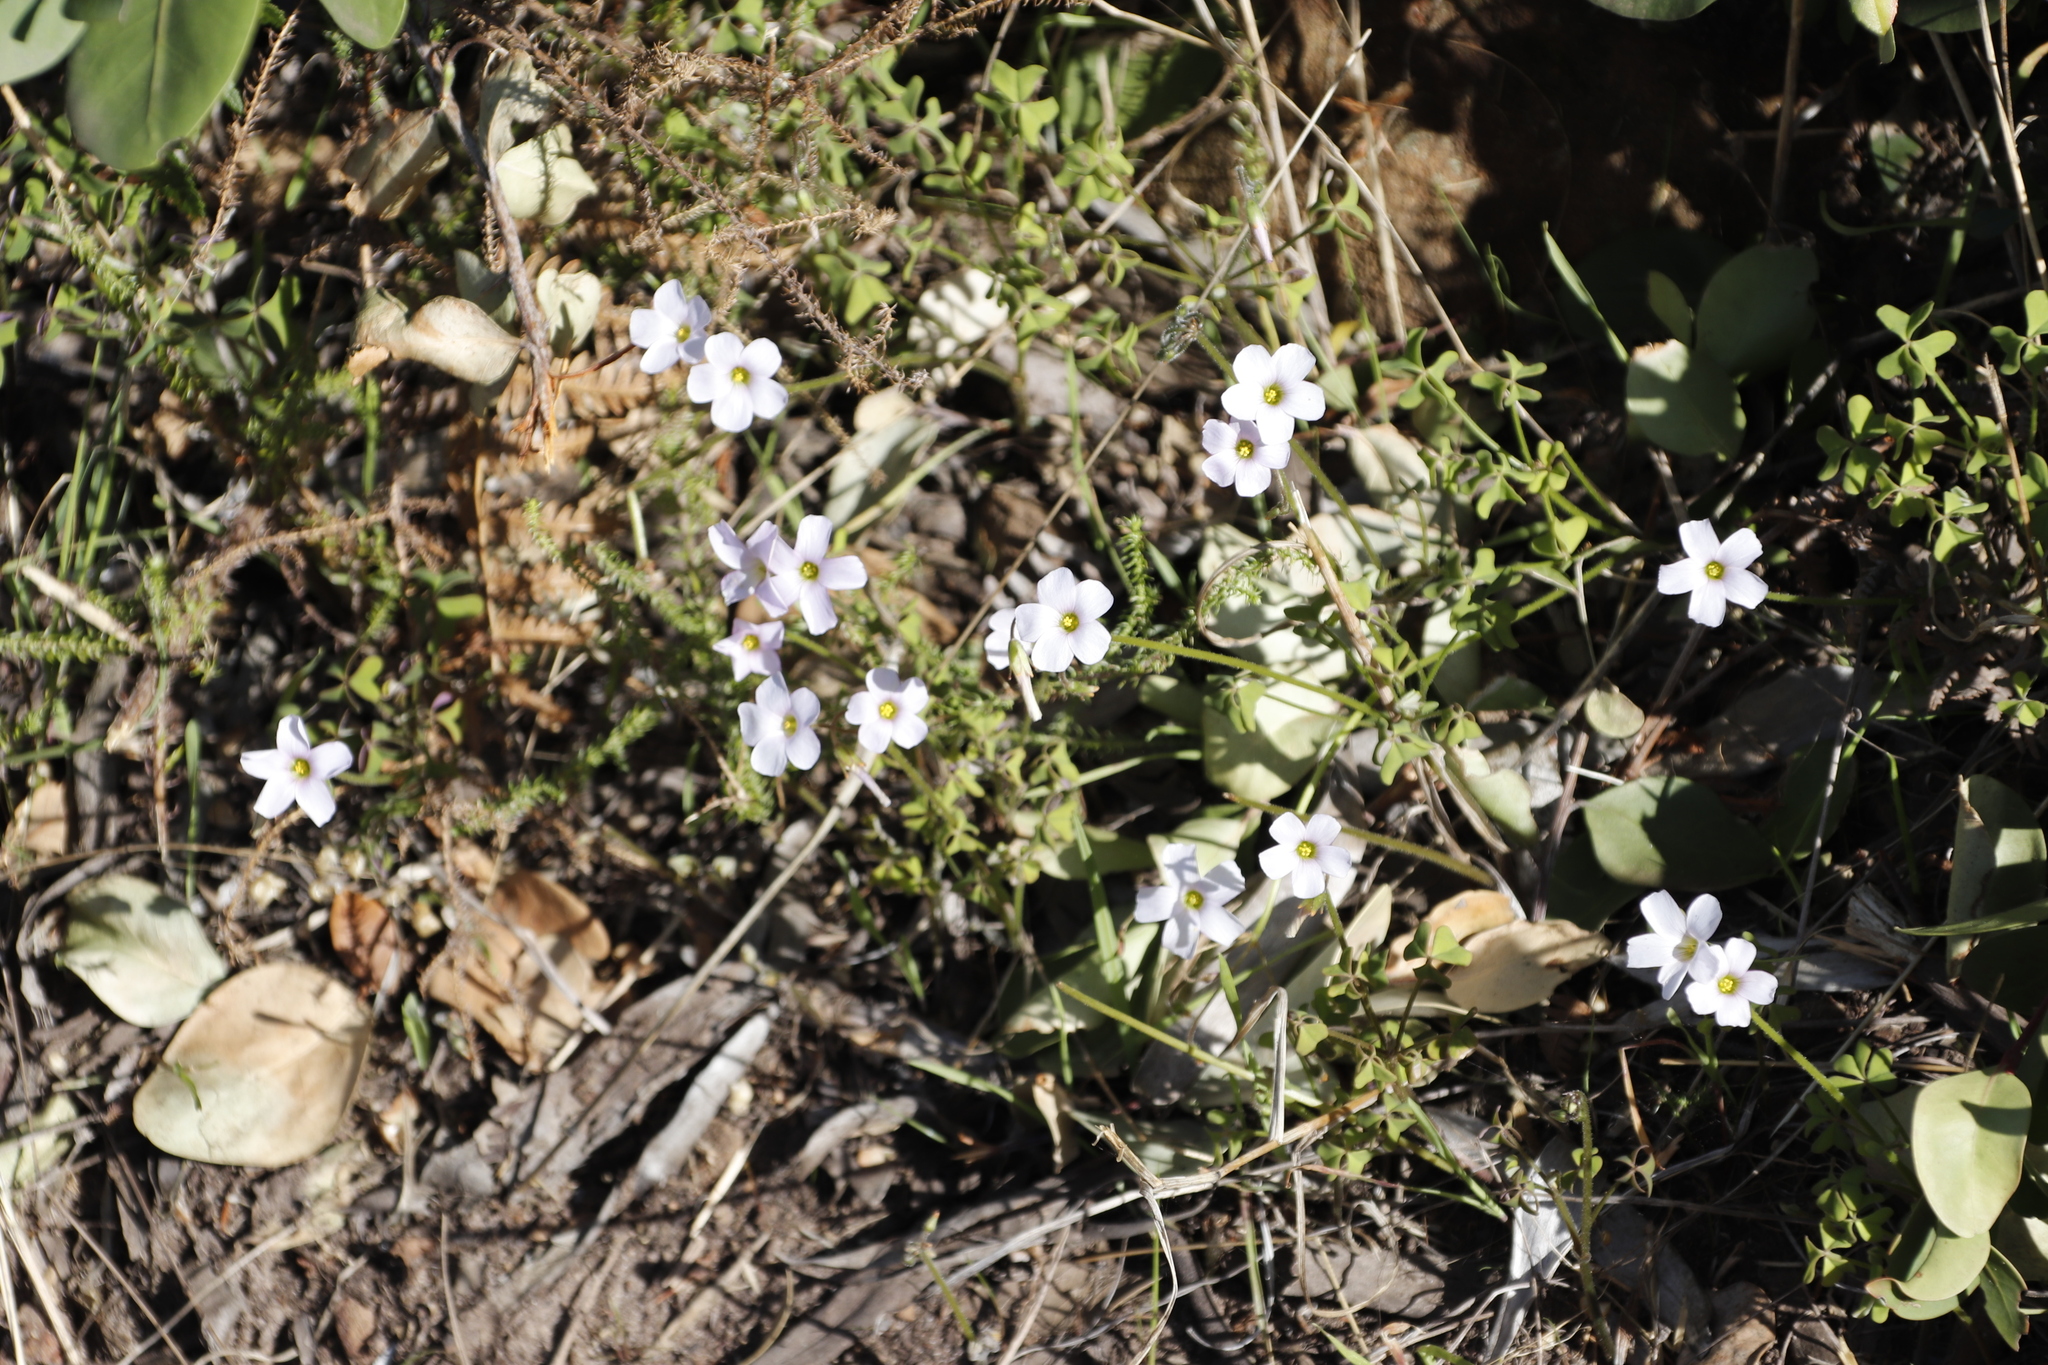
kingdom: Plantae
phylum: Tracheophyta
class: Magnoliopsida
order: Oxalidales
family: Oxalidaceae
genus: Oxalis
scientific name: Oxalis
